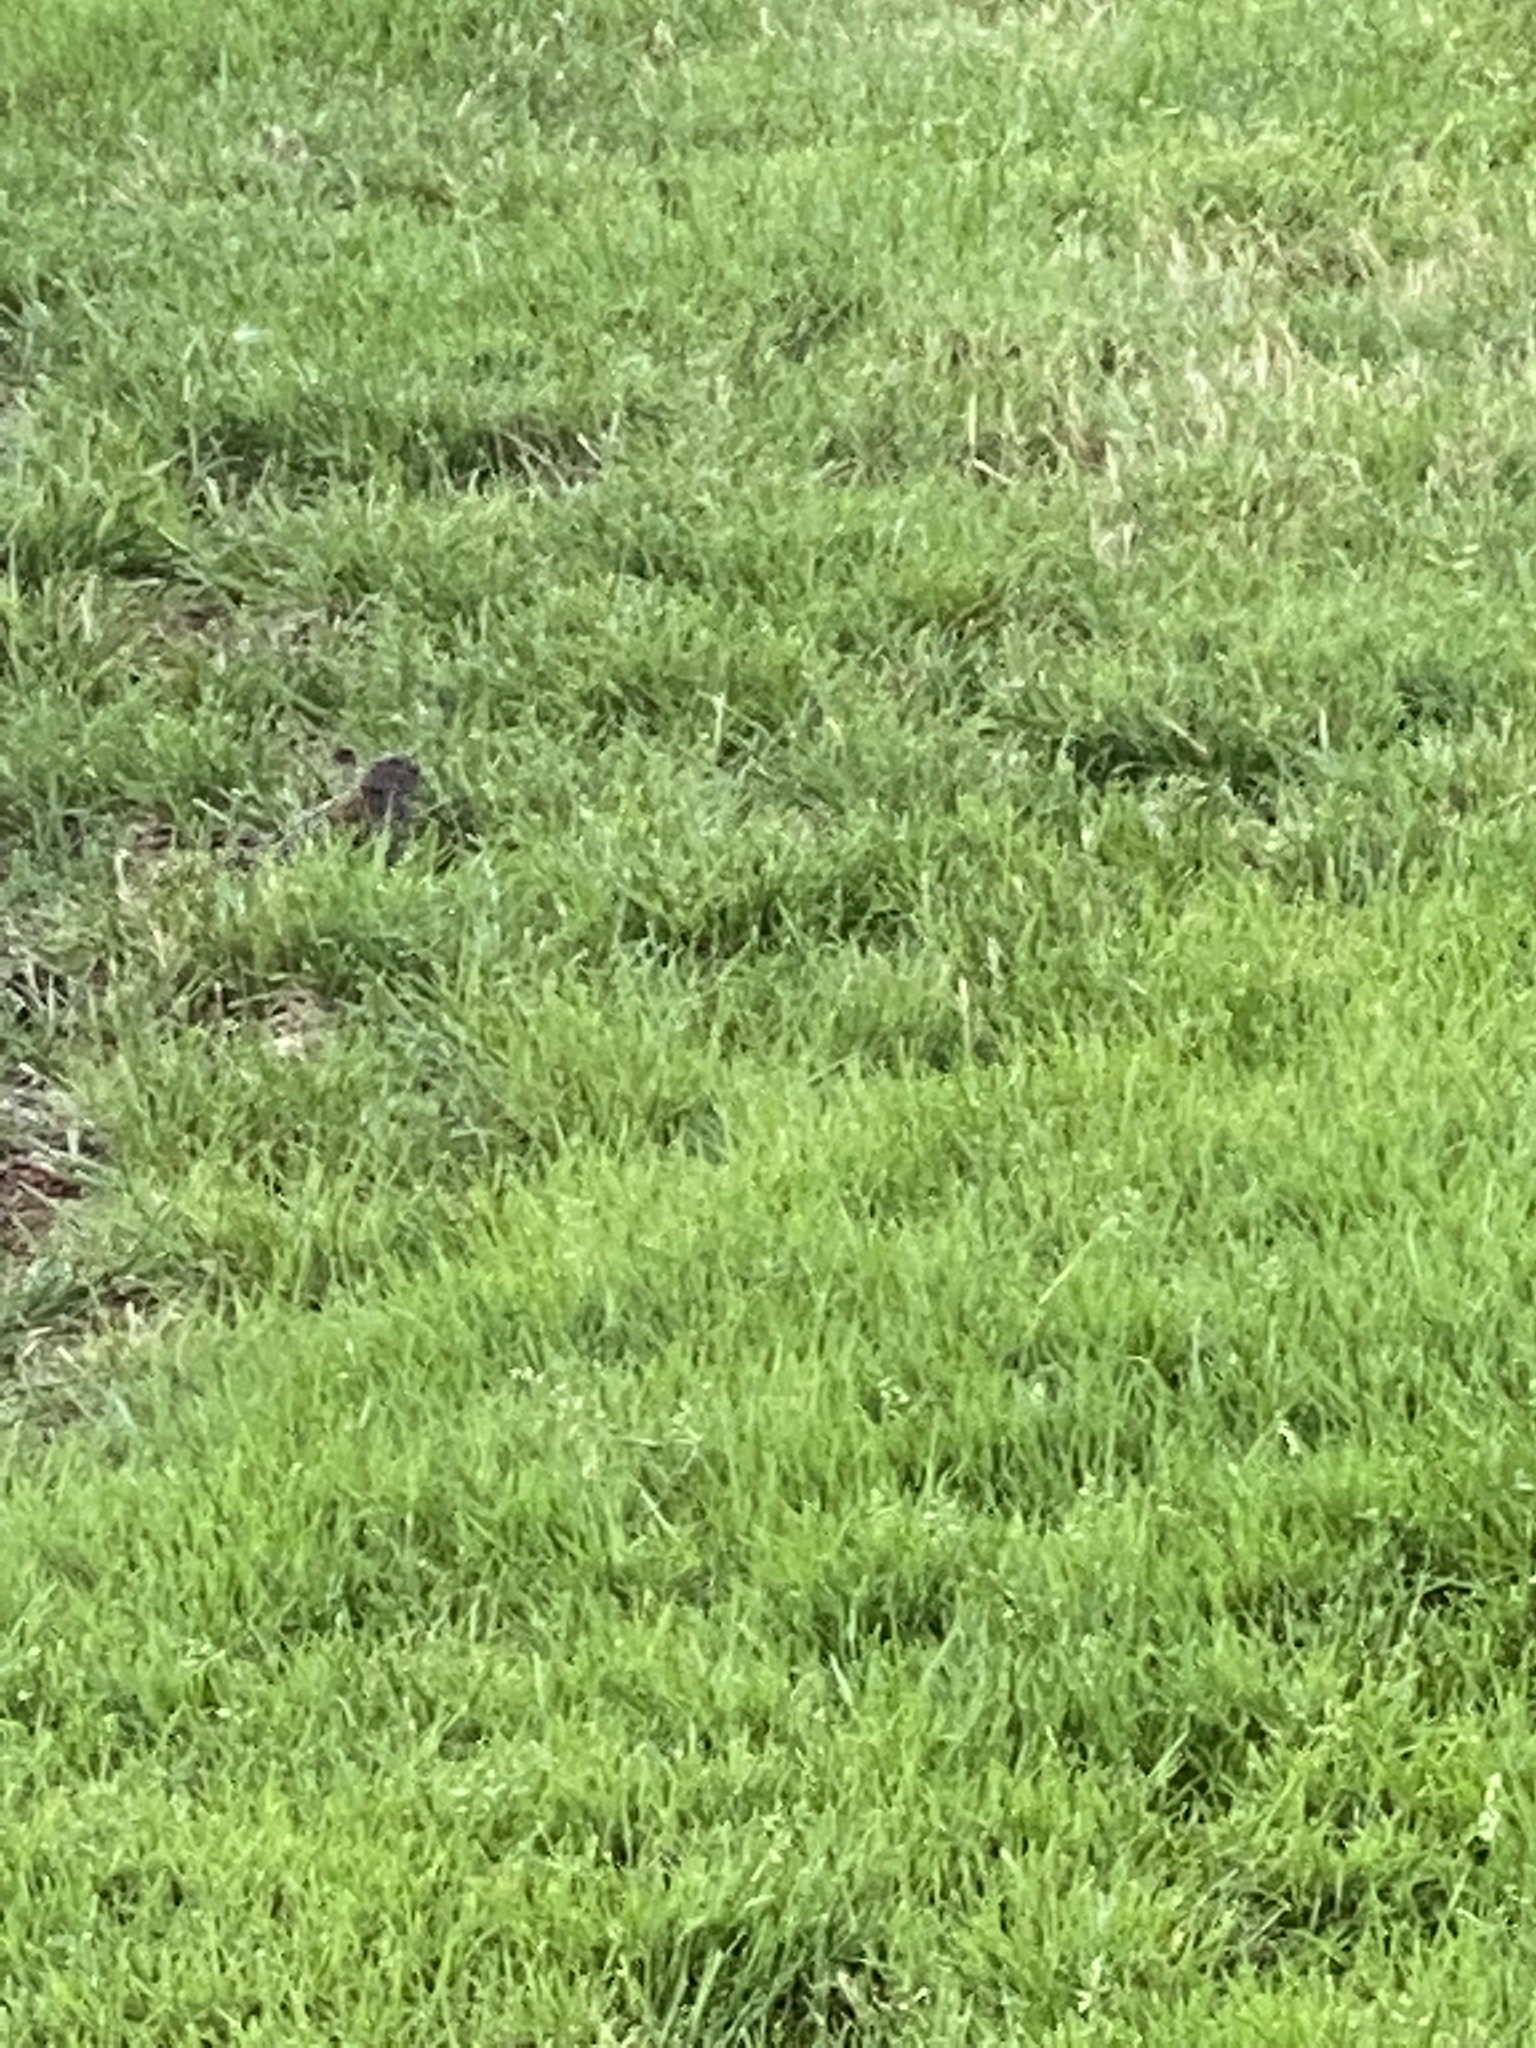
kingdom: Animalia
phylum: Chordata
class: Aves
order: Passeriformes
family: Passerellidae
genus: Junco
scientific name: Junco hyemalis
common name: Dark-eyed junco
